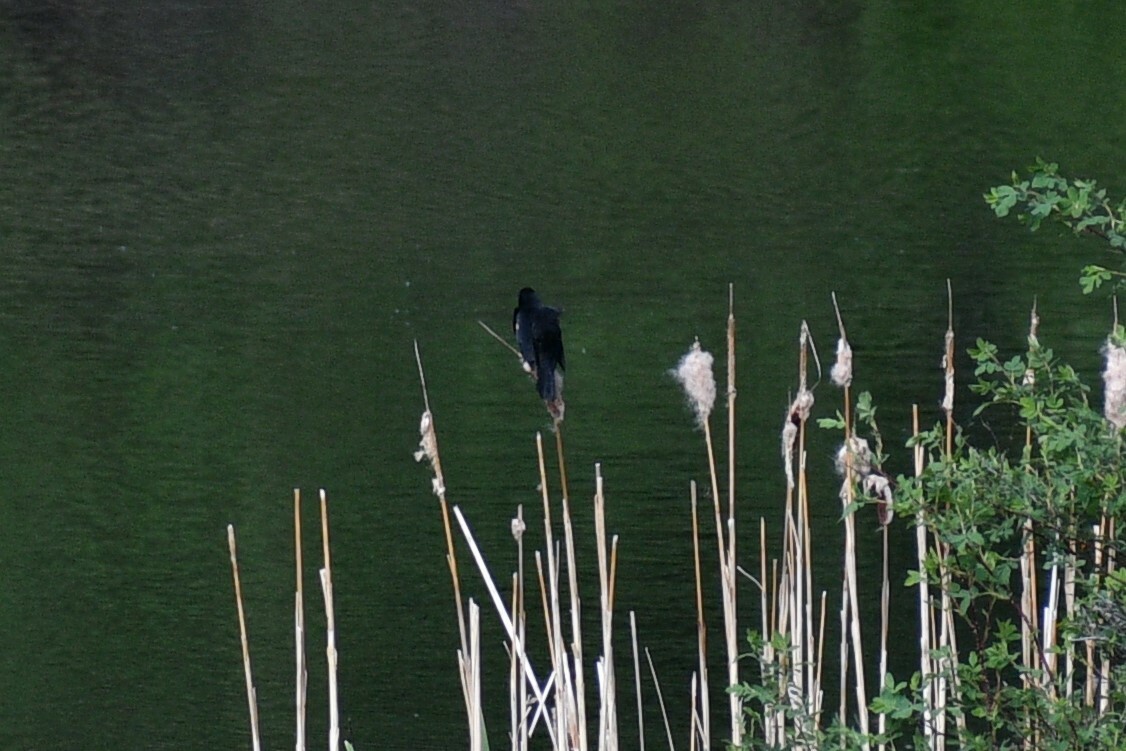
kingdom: Animalia
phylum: Chordata
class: Aves
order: Passeriformes
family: Icteridae
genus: Agelaius
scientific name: Agelaius phoeniceus
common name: Red-winged blackbird
